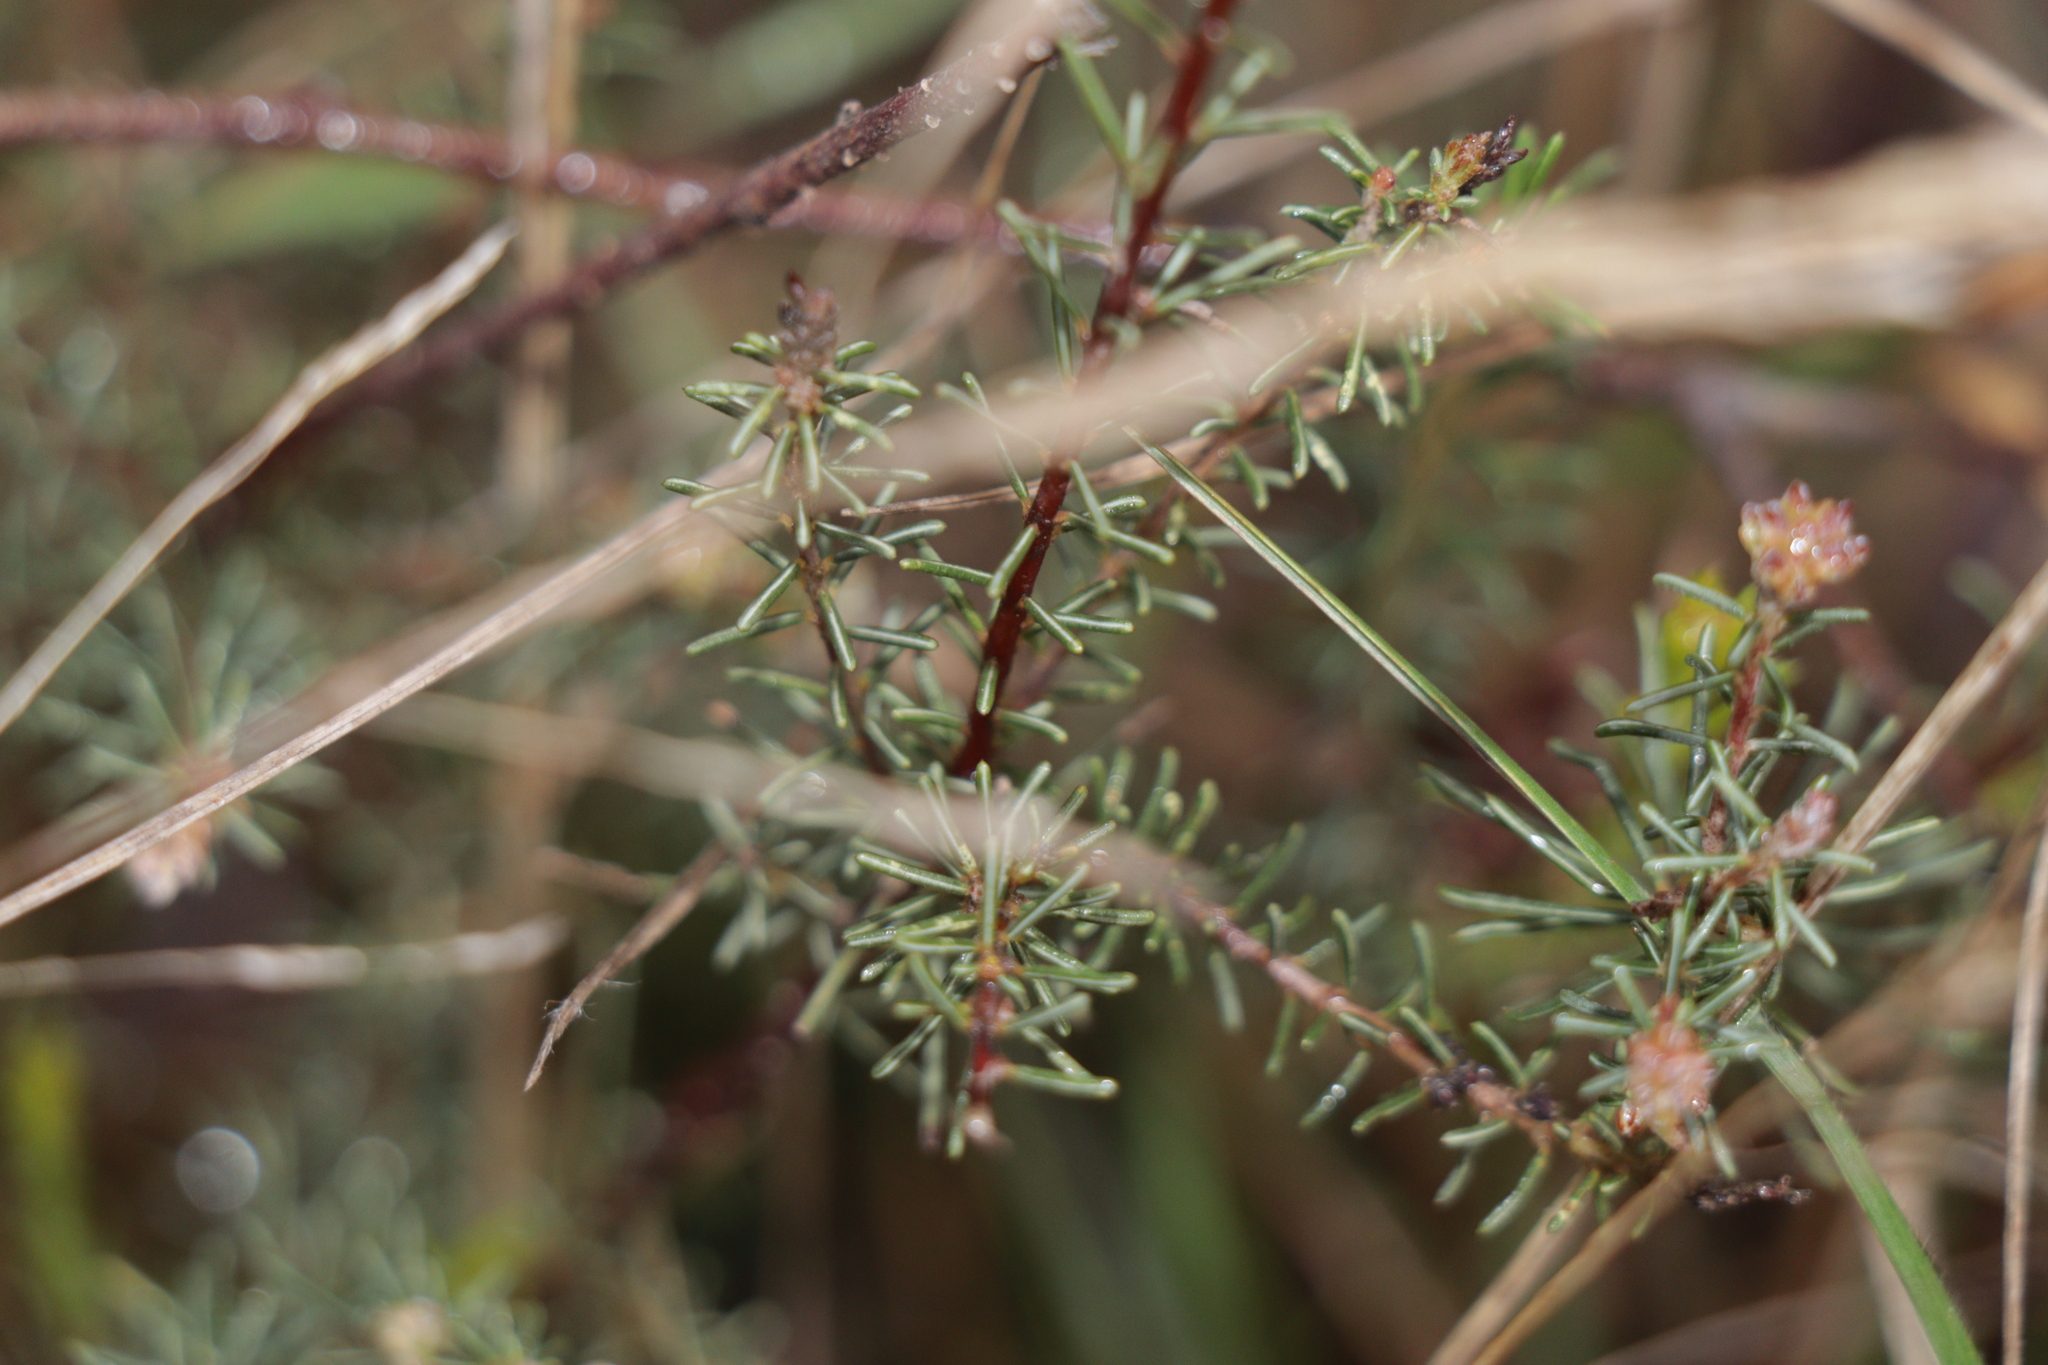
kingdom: Plantae
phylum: Tracheophyta
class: Magnoliopsida
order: Fabales
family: Fabaceae
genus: Dillwynia
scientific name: Dillwynia cinerascens
